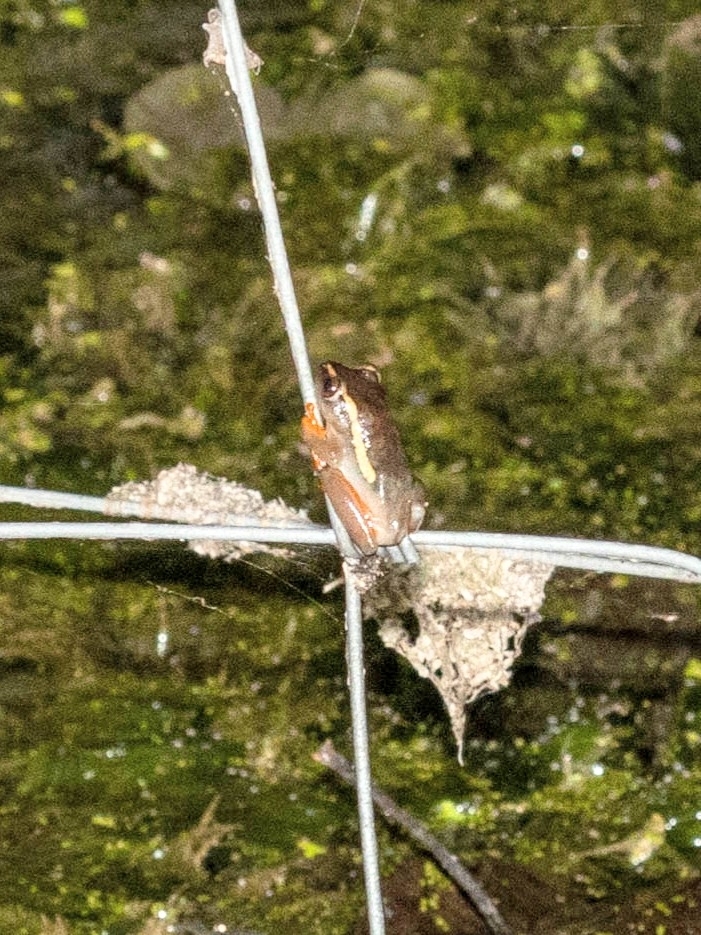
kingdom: Animalia
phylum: Chordata
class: Amphibia
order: Anura
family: Hyperoliidae
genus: Hyperolius
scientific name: Hyperolius argus
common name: Argus reed frog
